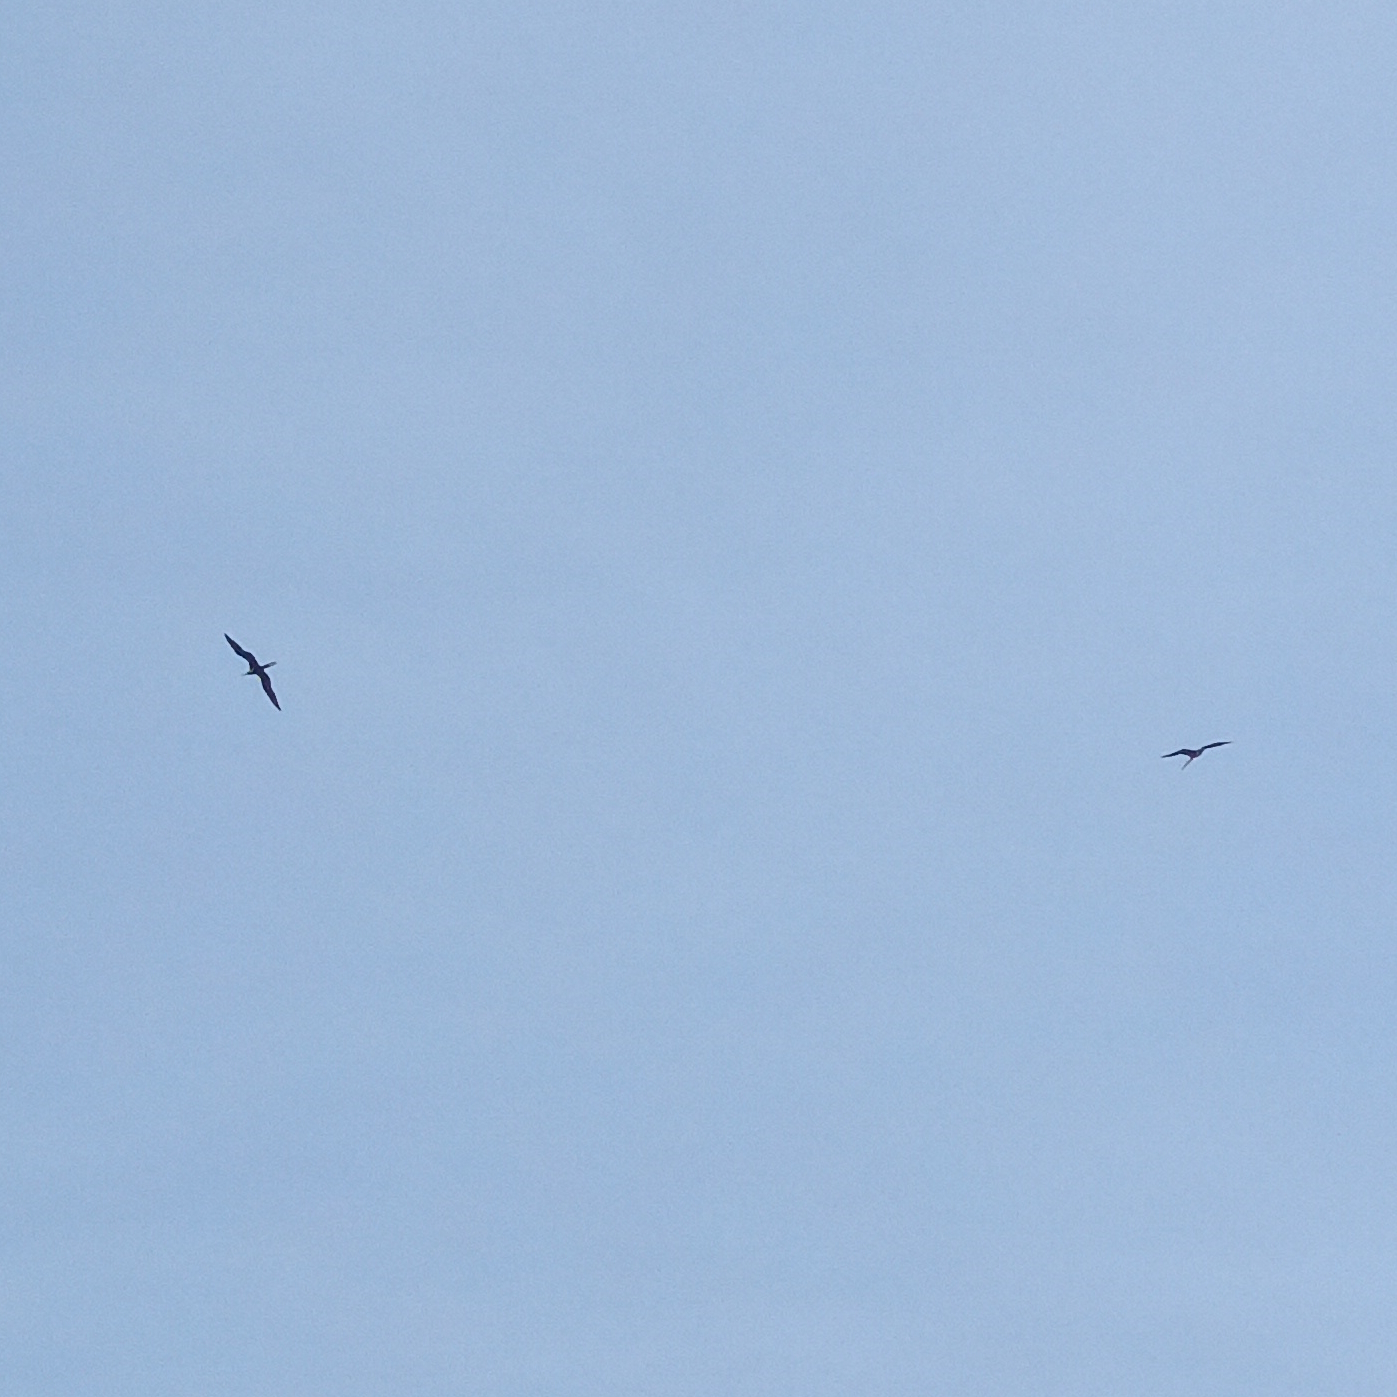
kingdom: Animalia
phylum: Chordata
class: Aves
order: Suliformes
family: Fregatidae
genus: Fregata
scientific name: Fregata magnificens
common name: Magnificent frigatebird
